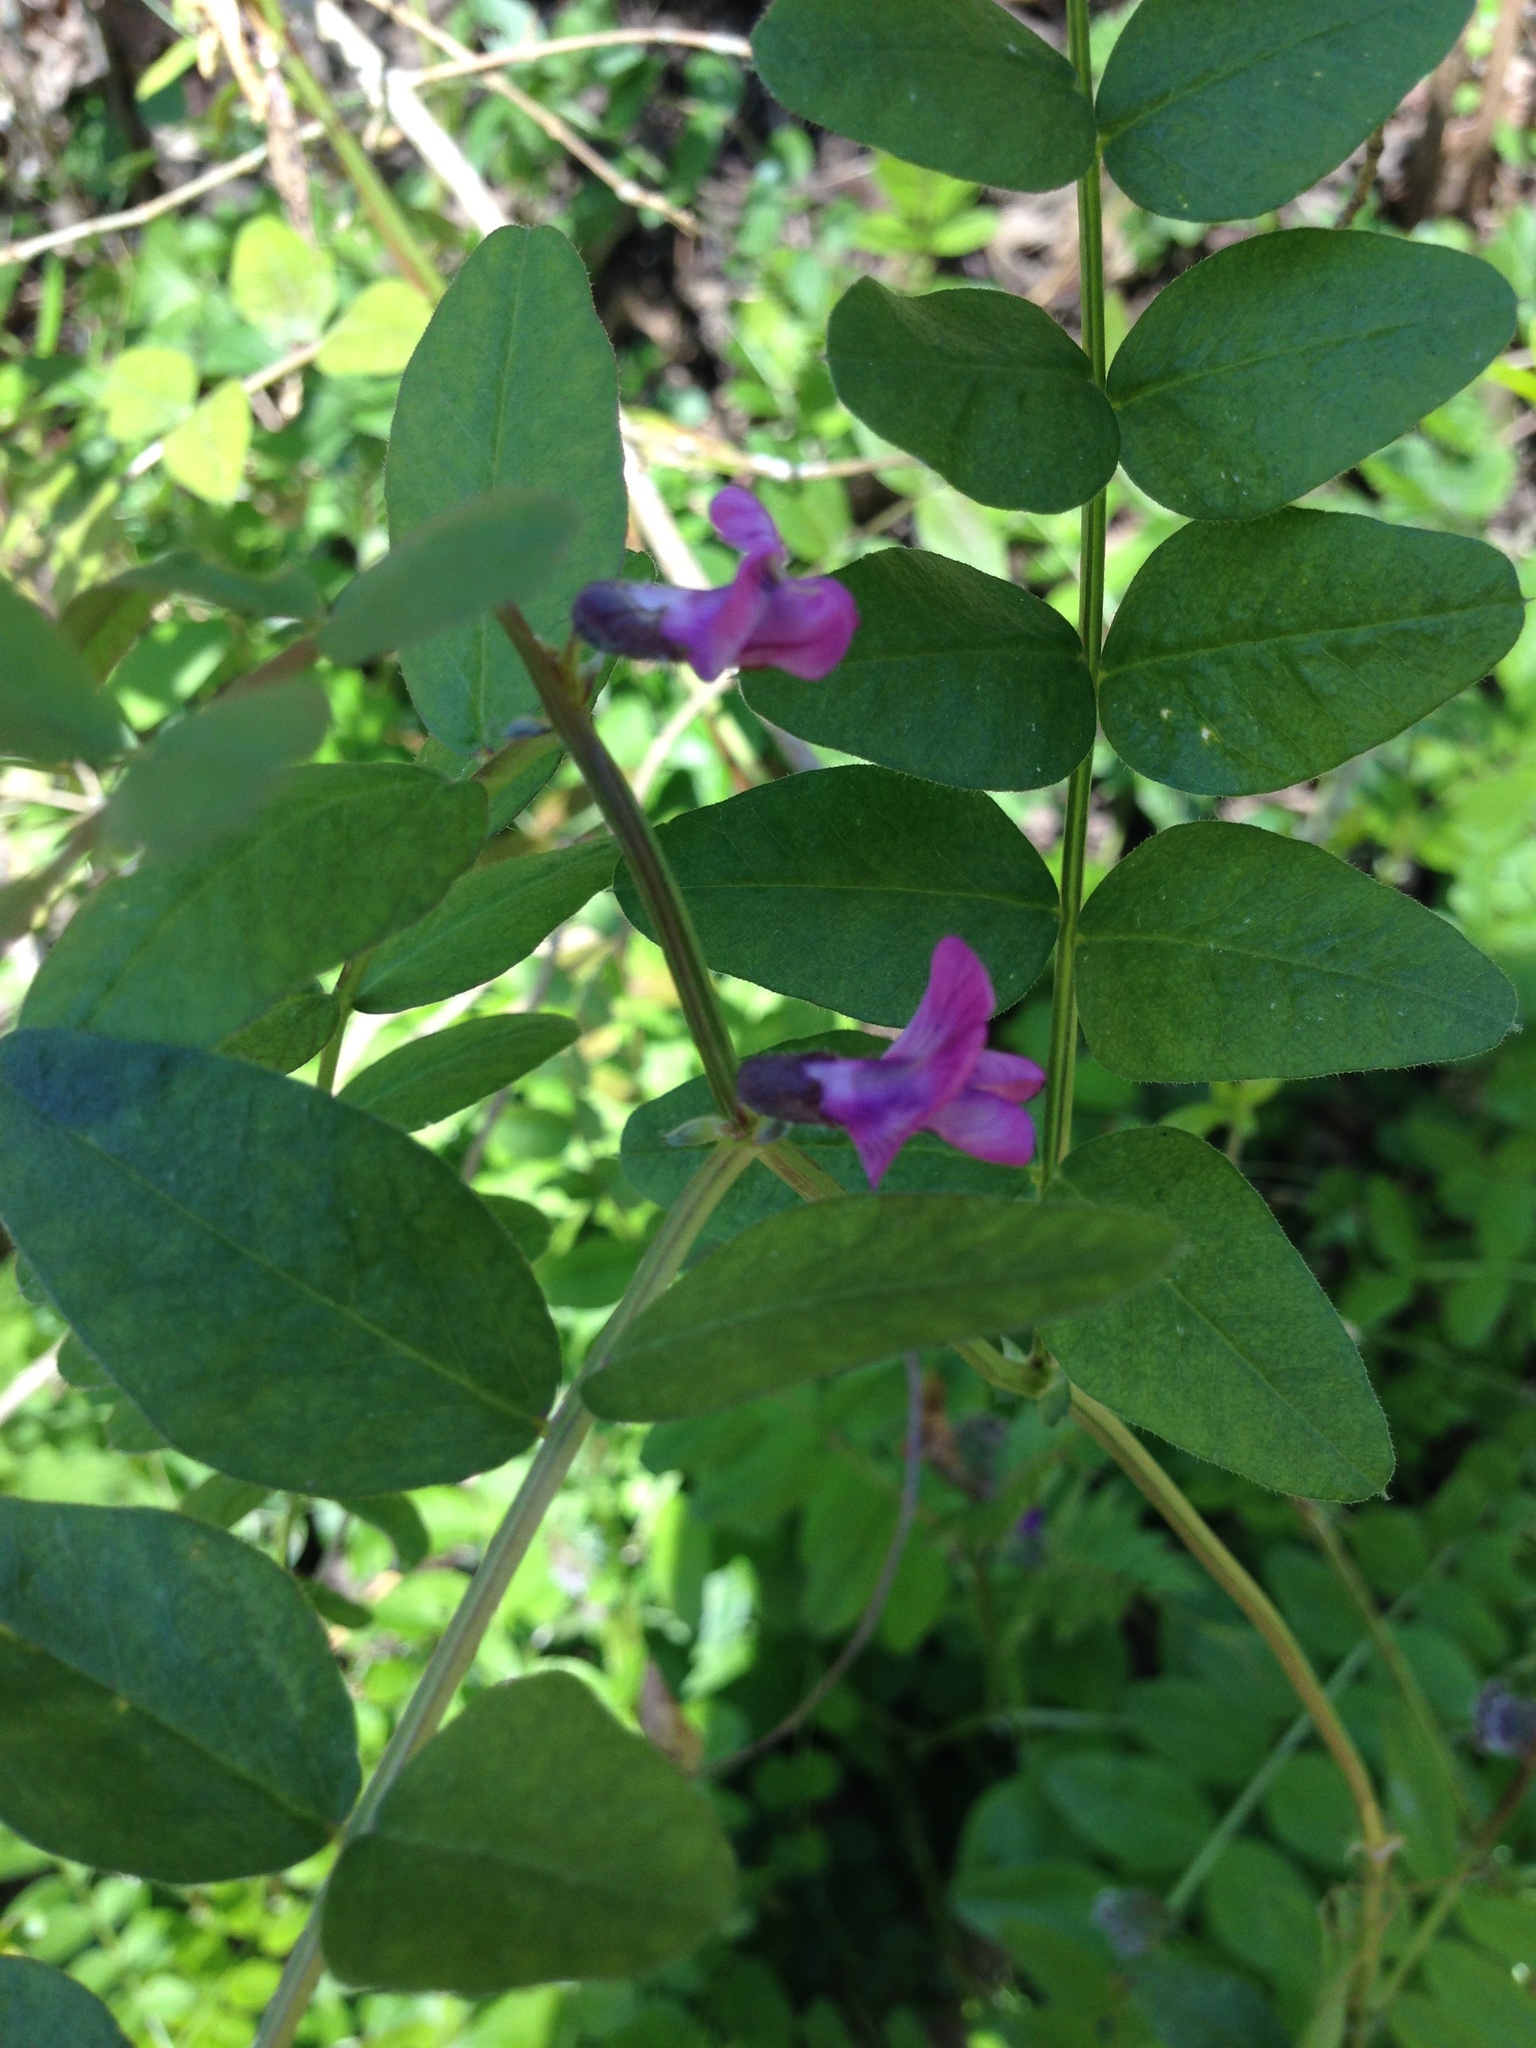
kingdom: Plantae
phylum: Tracheophyta
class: Magnoliopsida
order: Fabales
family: Fabaceae
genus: Vicia
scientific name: Vicia sepium
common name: Bush vetch
